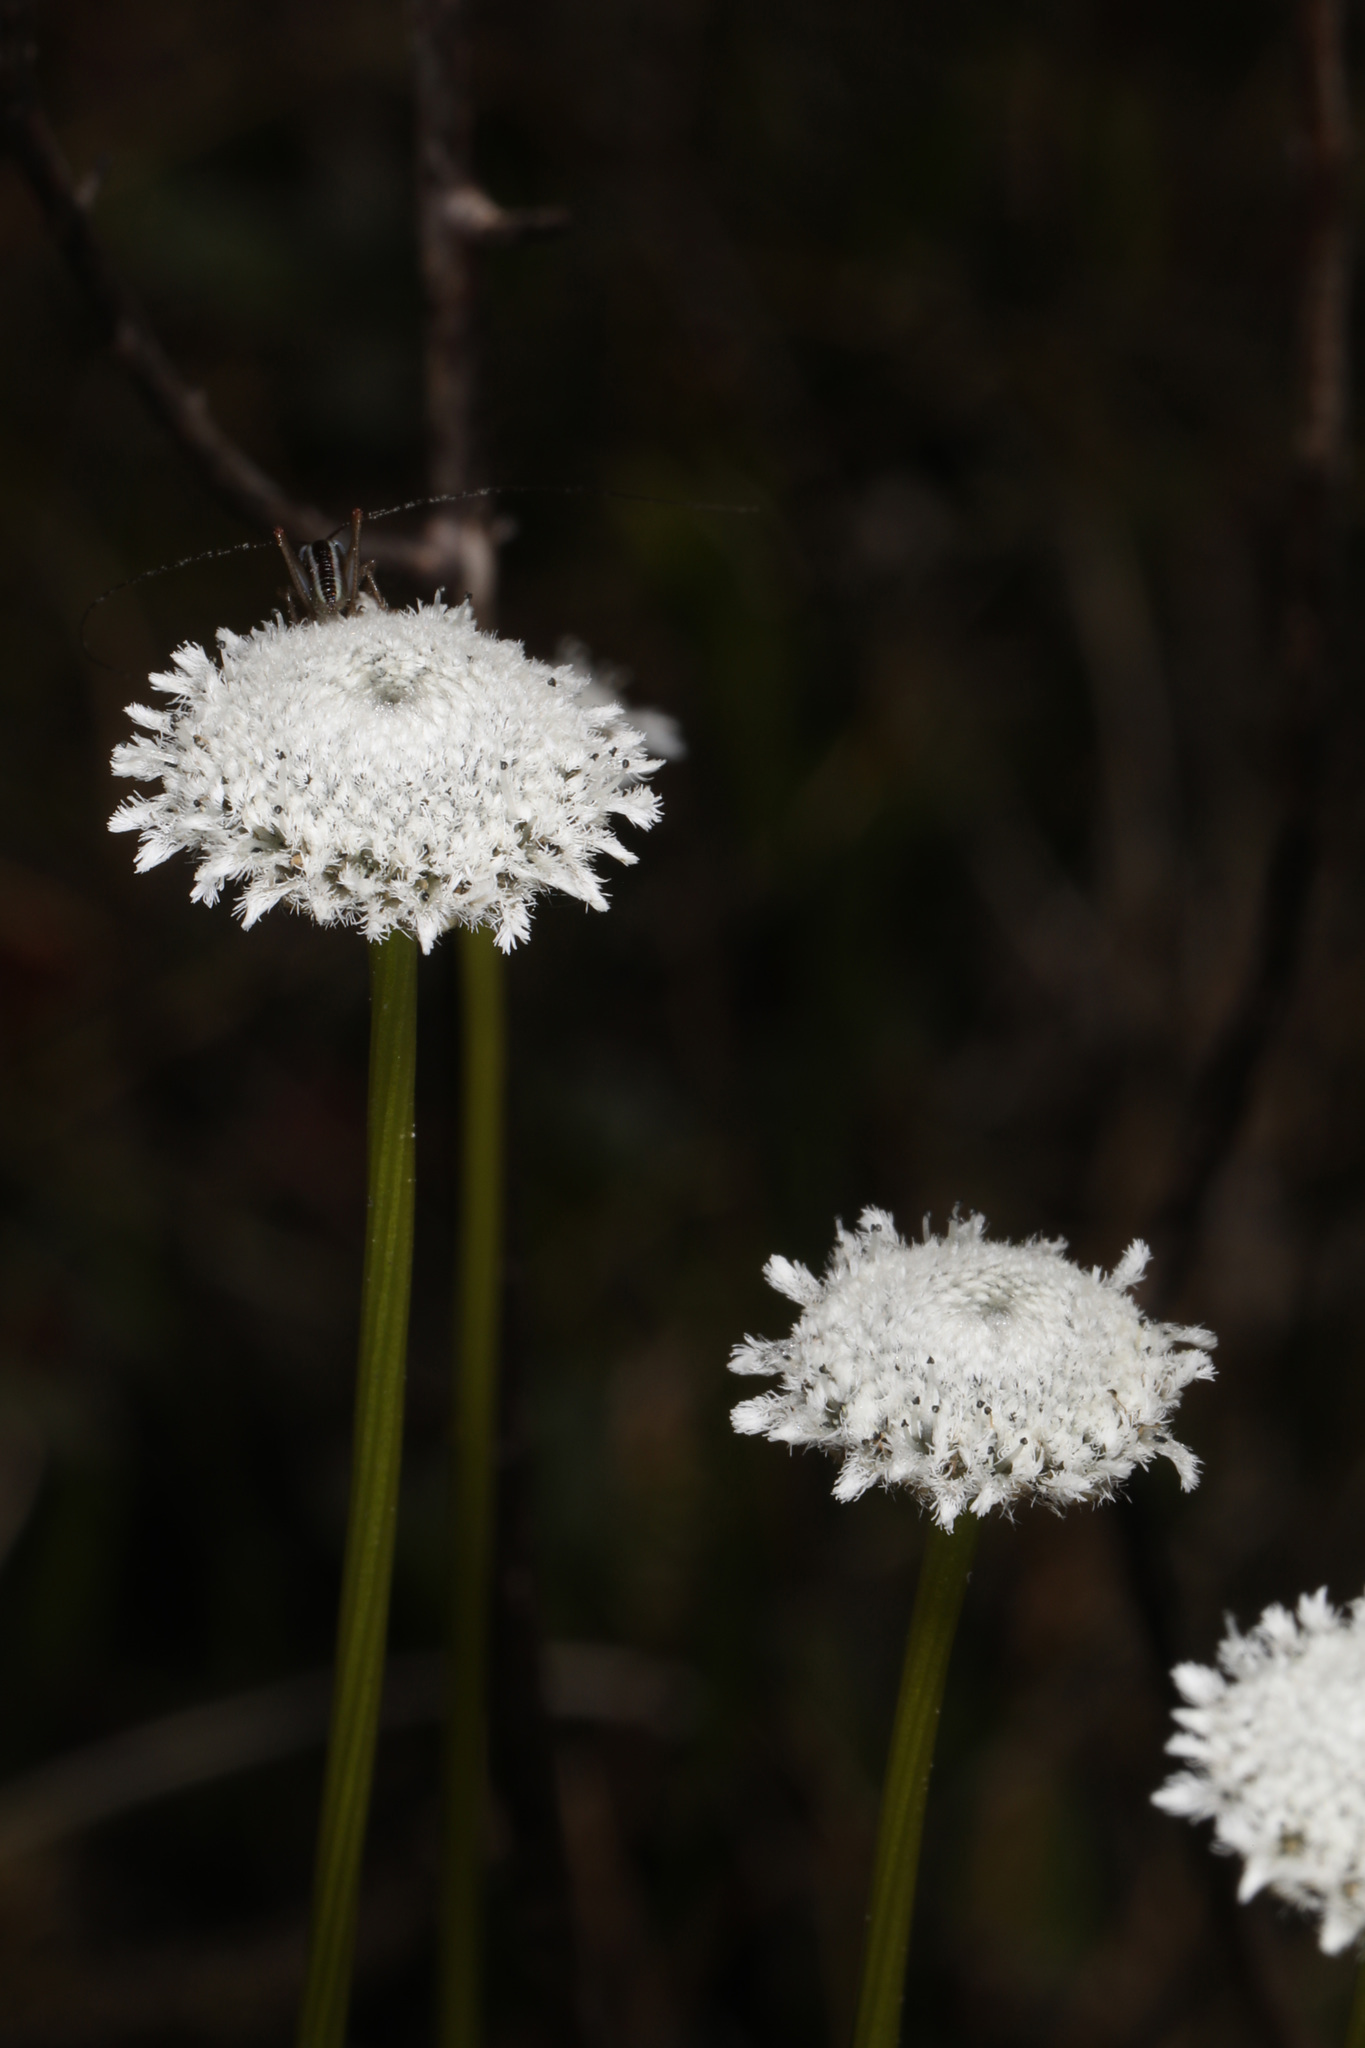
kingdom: Plantae
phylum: Tracheophyta
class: Liliopsida
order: Poales
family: Eriocaulaceae
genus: Eriocaulon
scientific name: Eriocaulon compressum
